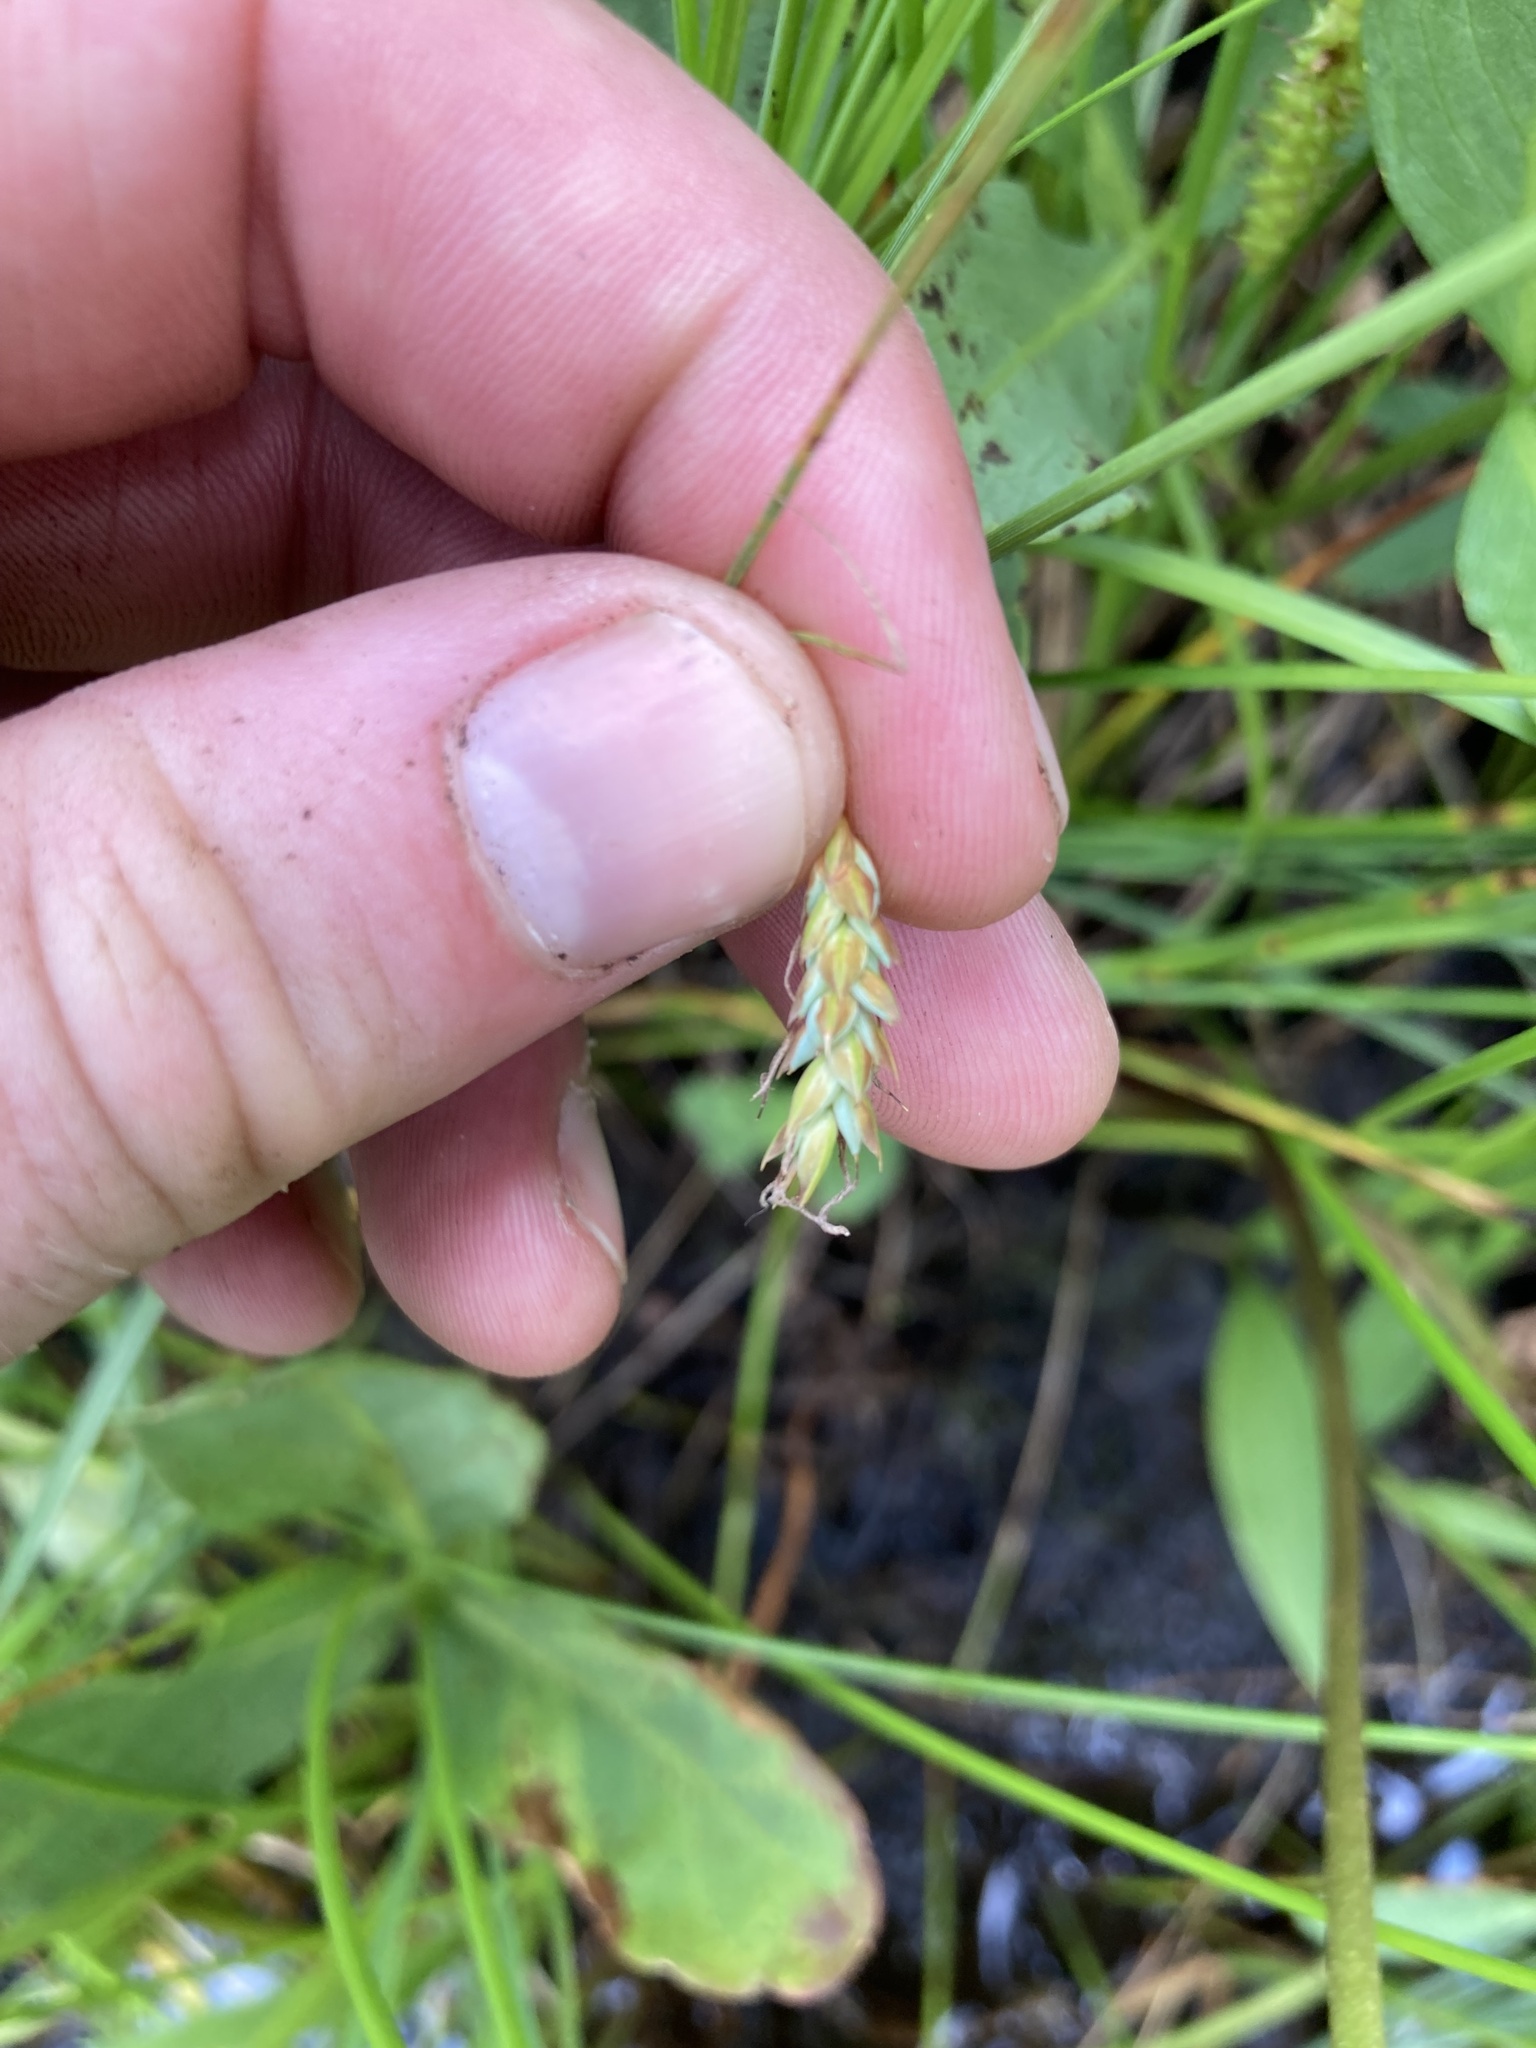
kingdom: Plantae
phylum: Tracheophyta
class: Liliopsida
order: Poales
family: Cyperaceae
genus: Carex
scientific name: Carex limosa
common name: Bog sedge
